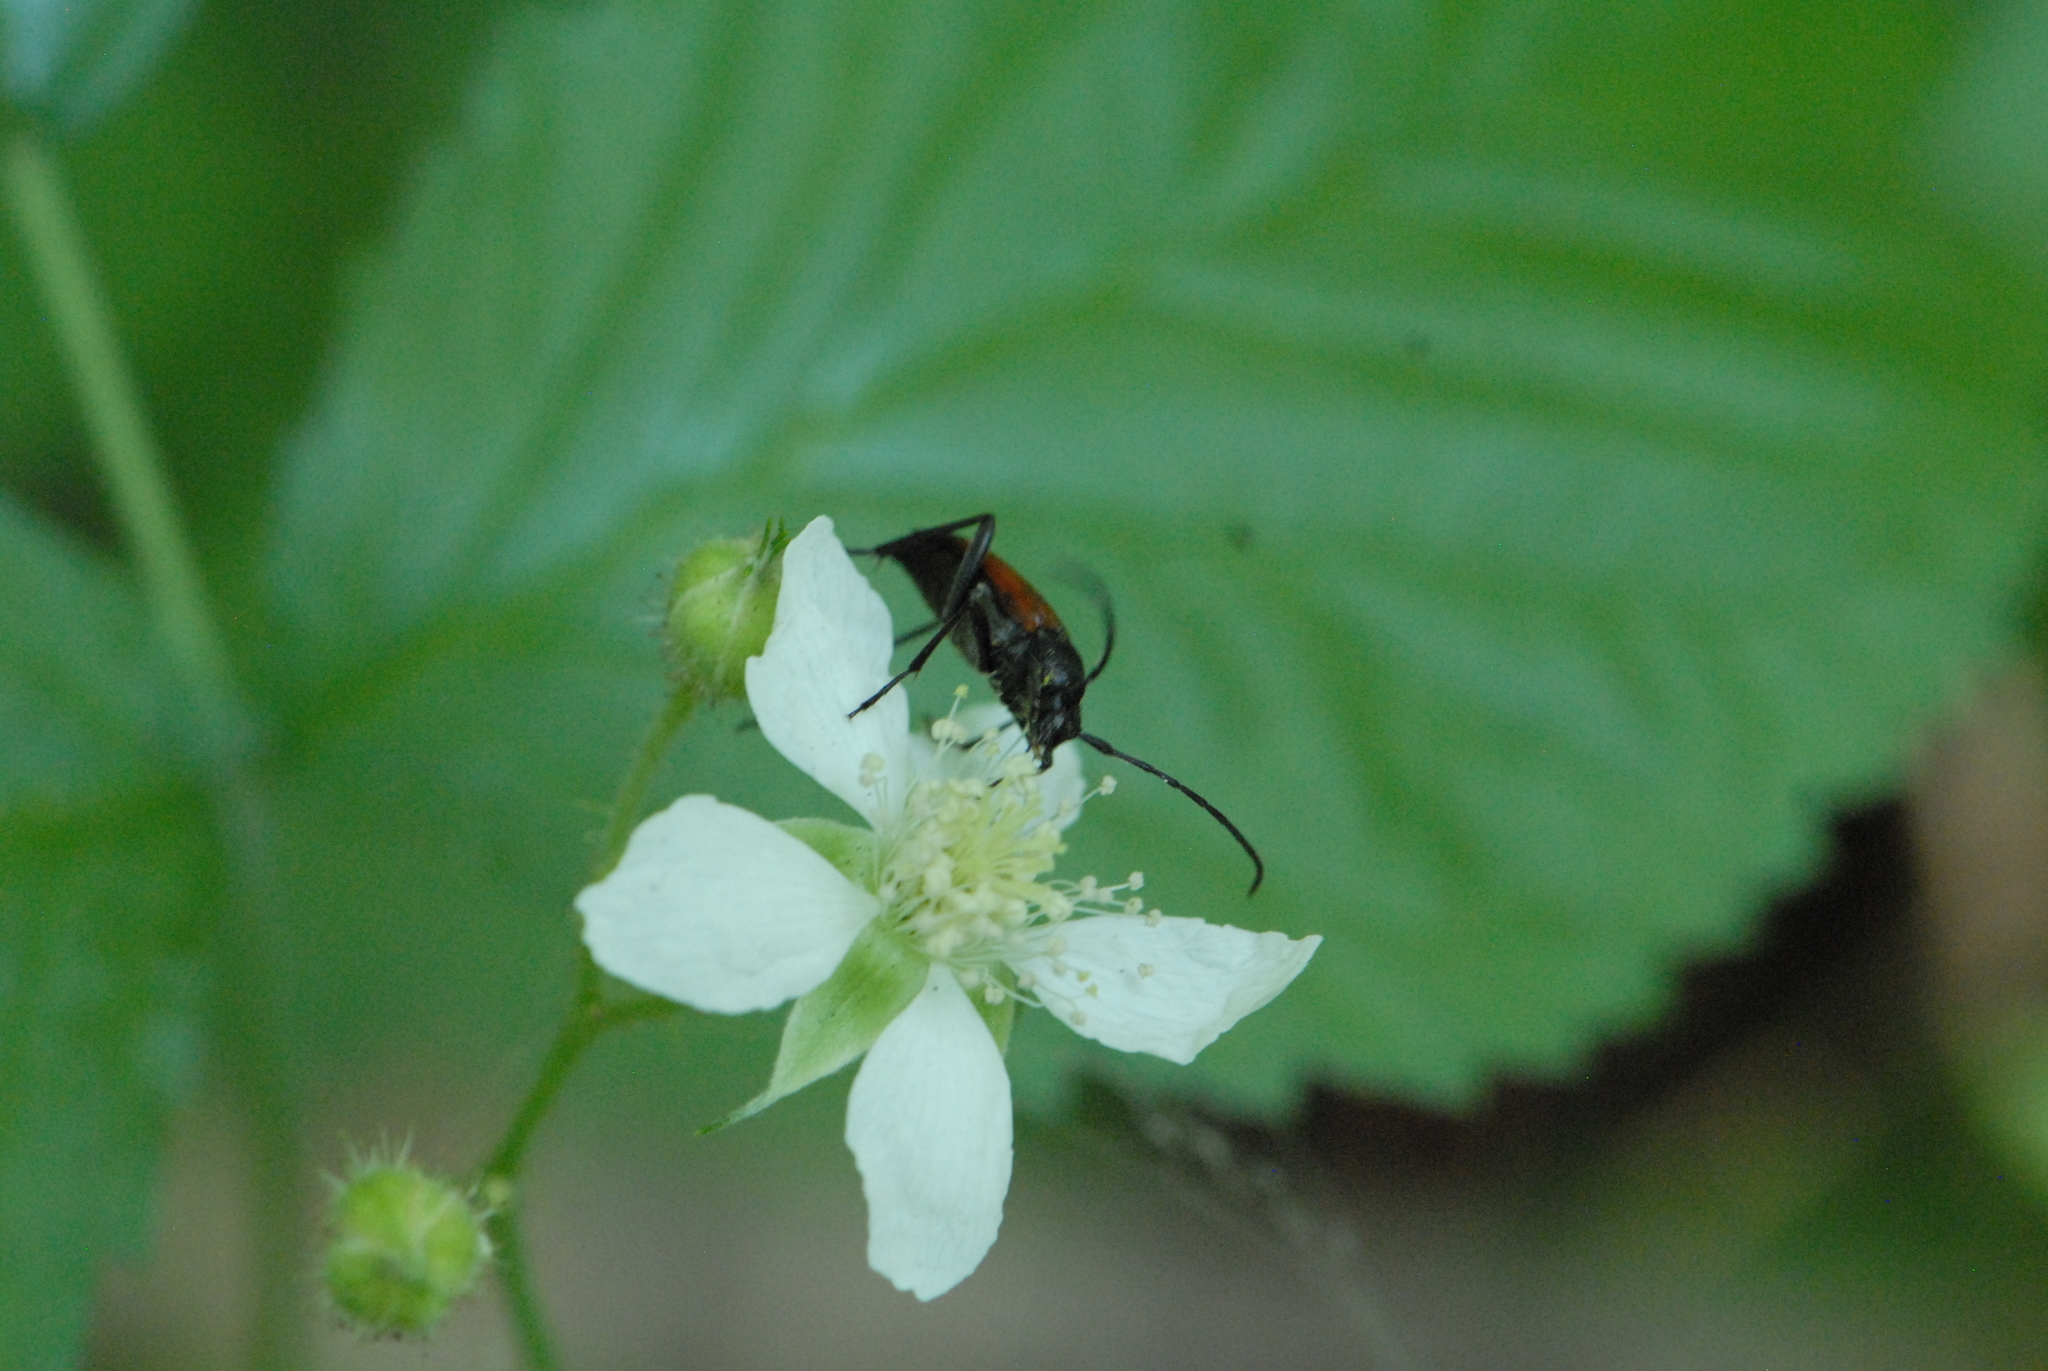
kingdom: Plantae
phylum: Tracheophyta
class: Magnoliopsida
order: Rosales
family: Rosaceae
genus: Rubus
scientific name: Rubus caesius
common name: Dewberry
